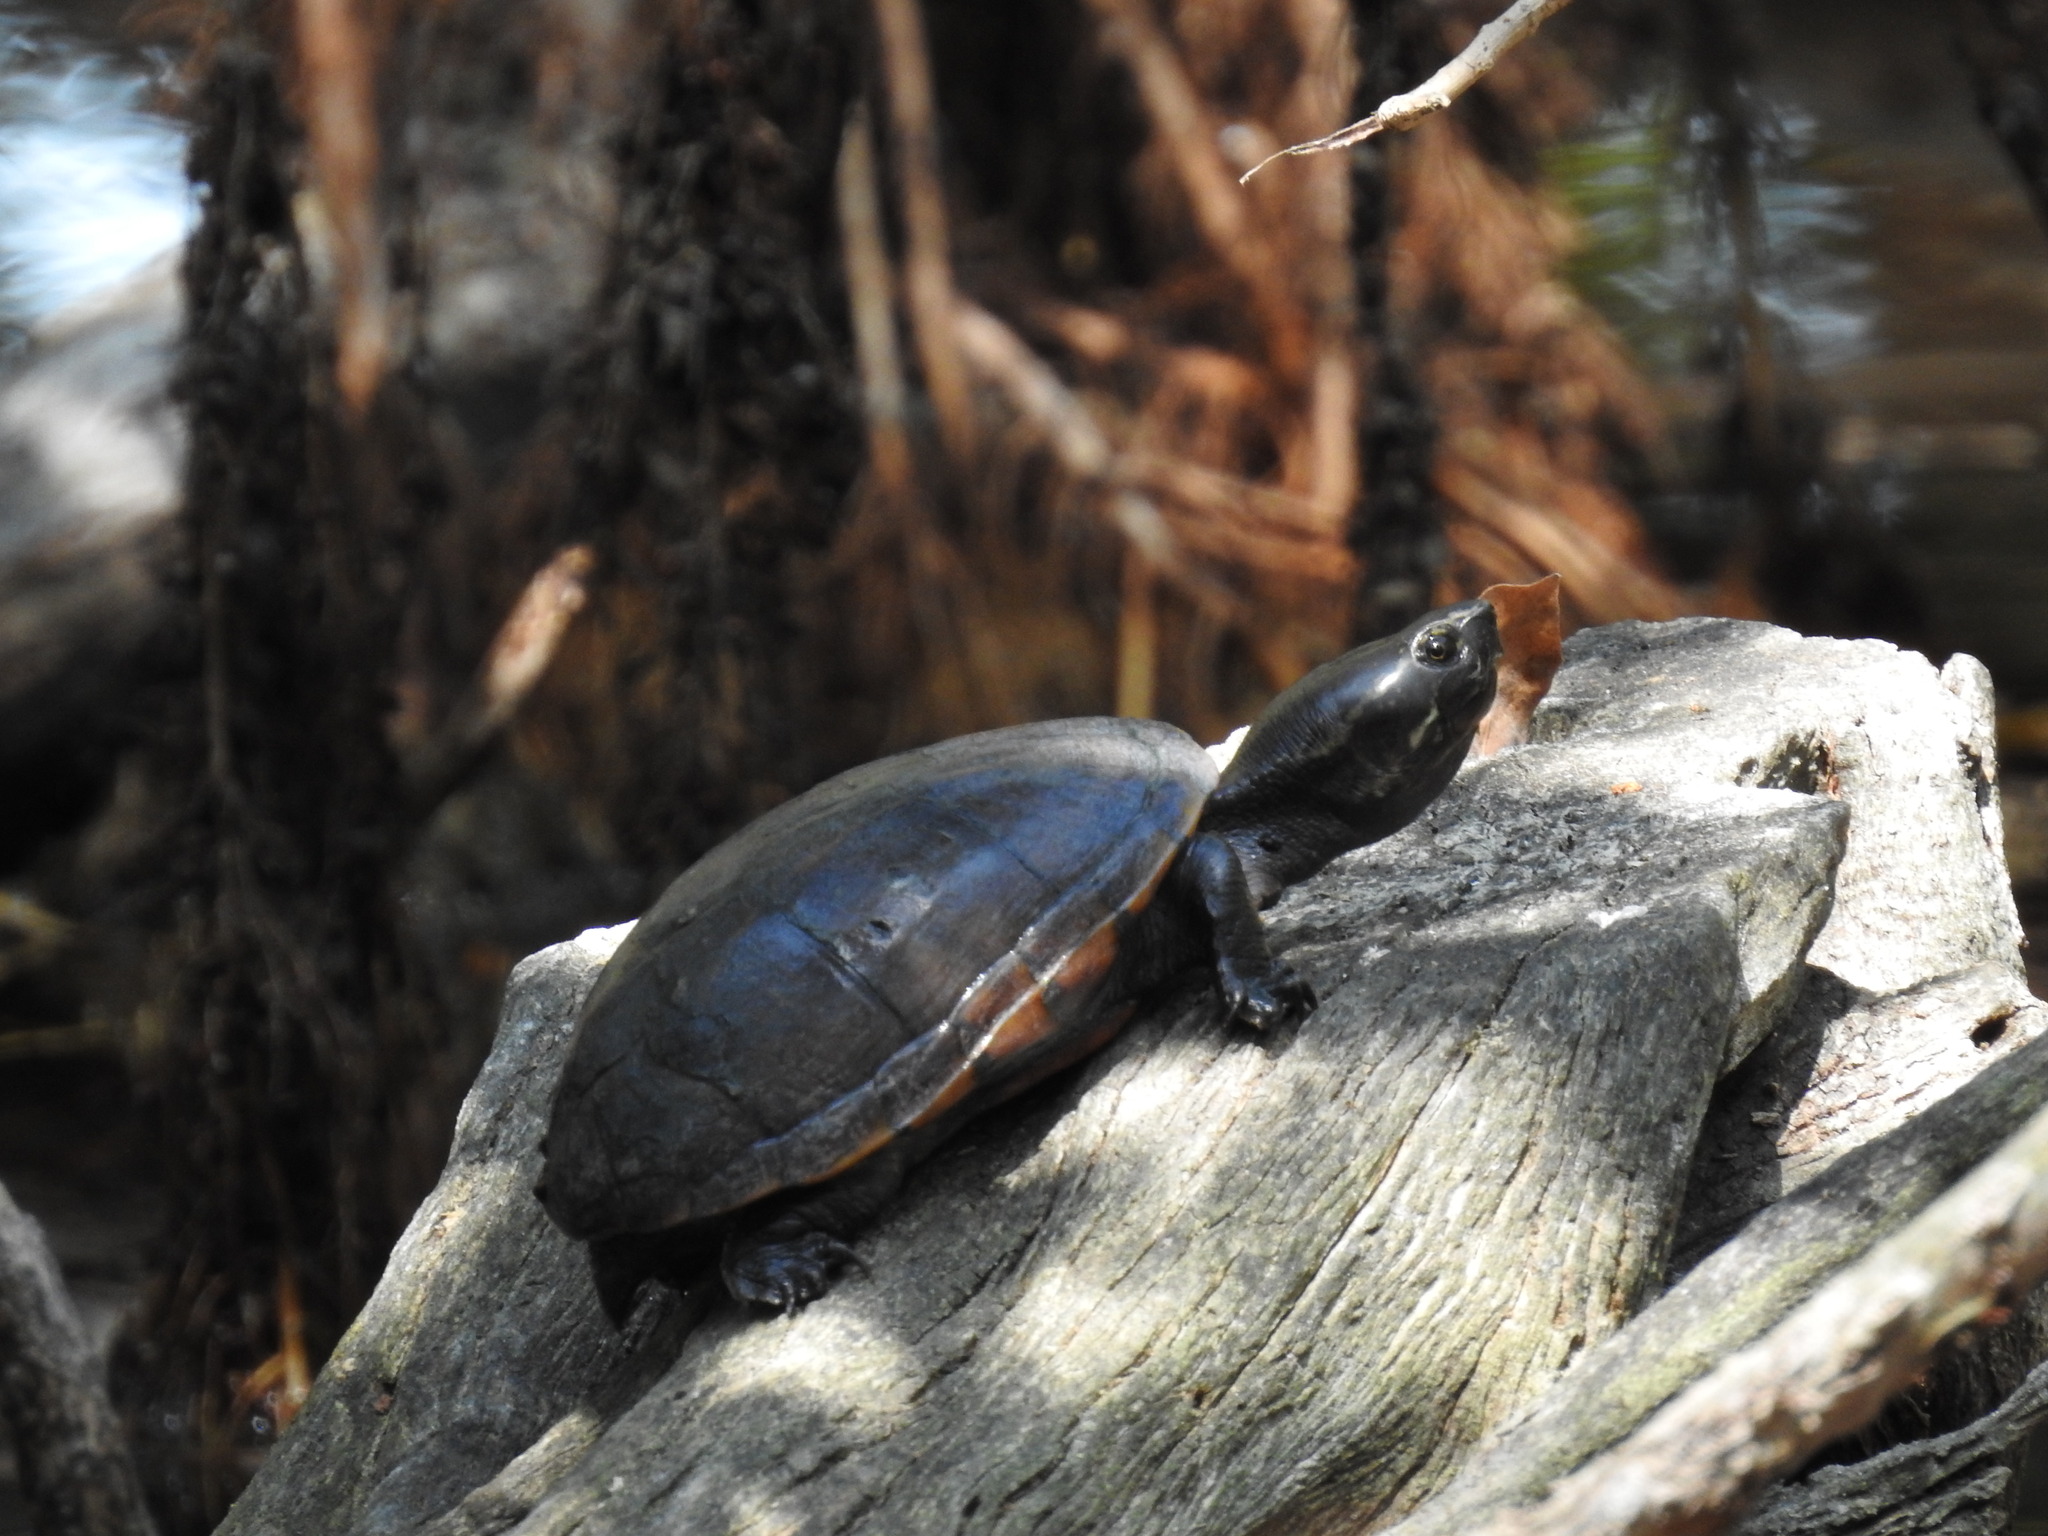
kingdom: Animalia
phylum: Chordata
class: Testudines
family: Kinosternidae
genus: Kinosternon
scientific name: Kinosternon baurii
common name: Striped mud turtle
